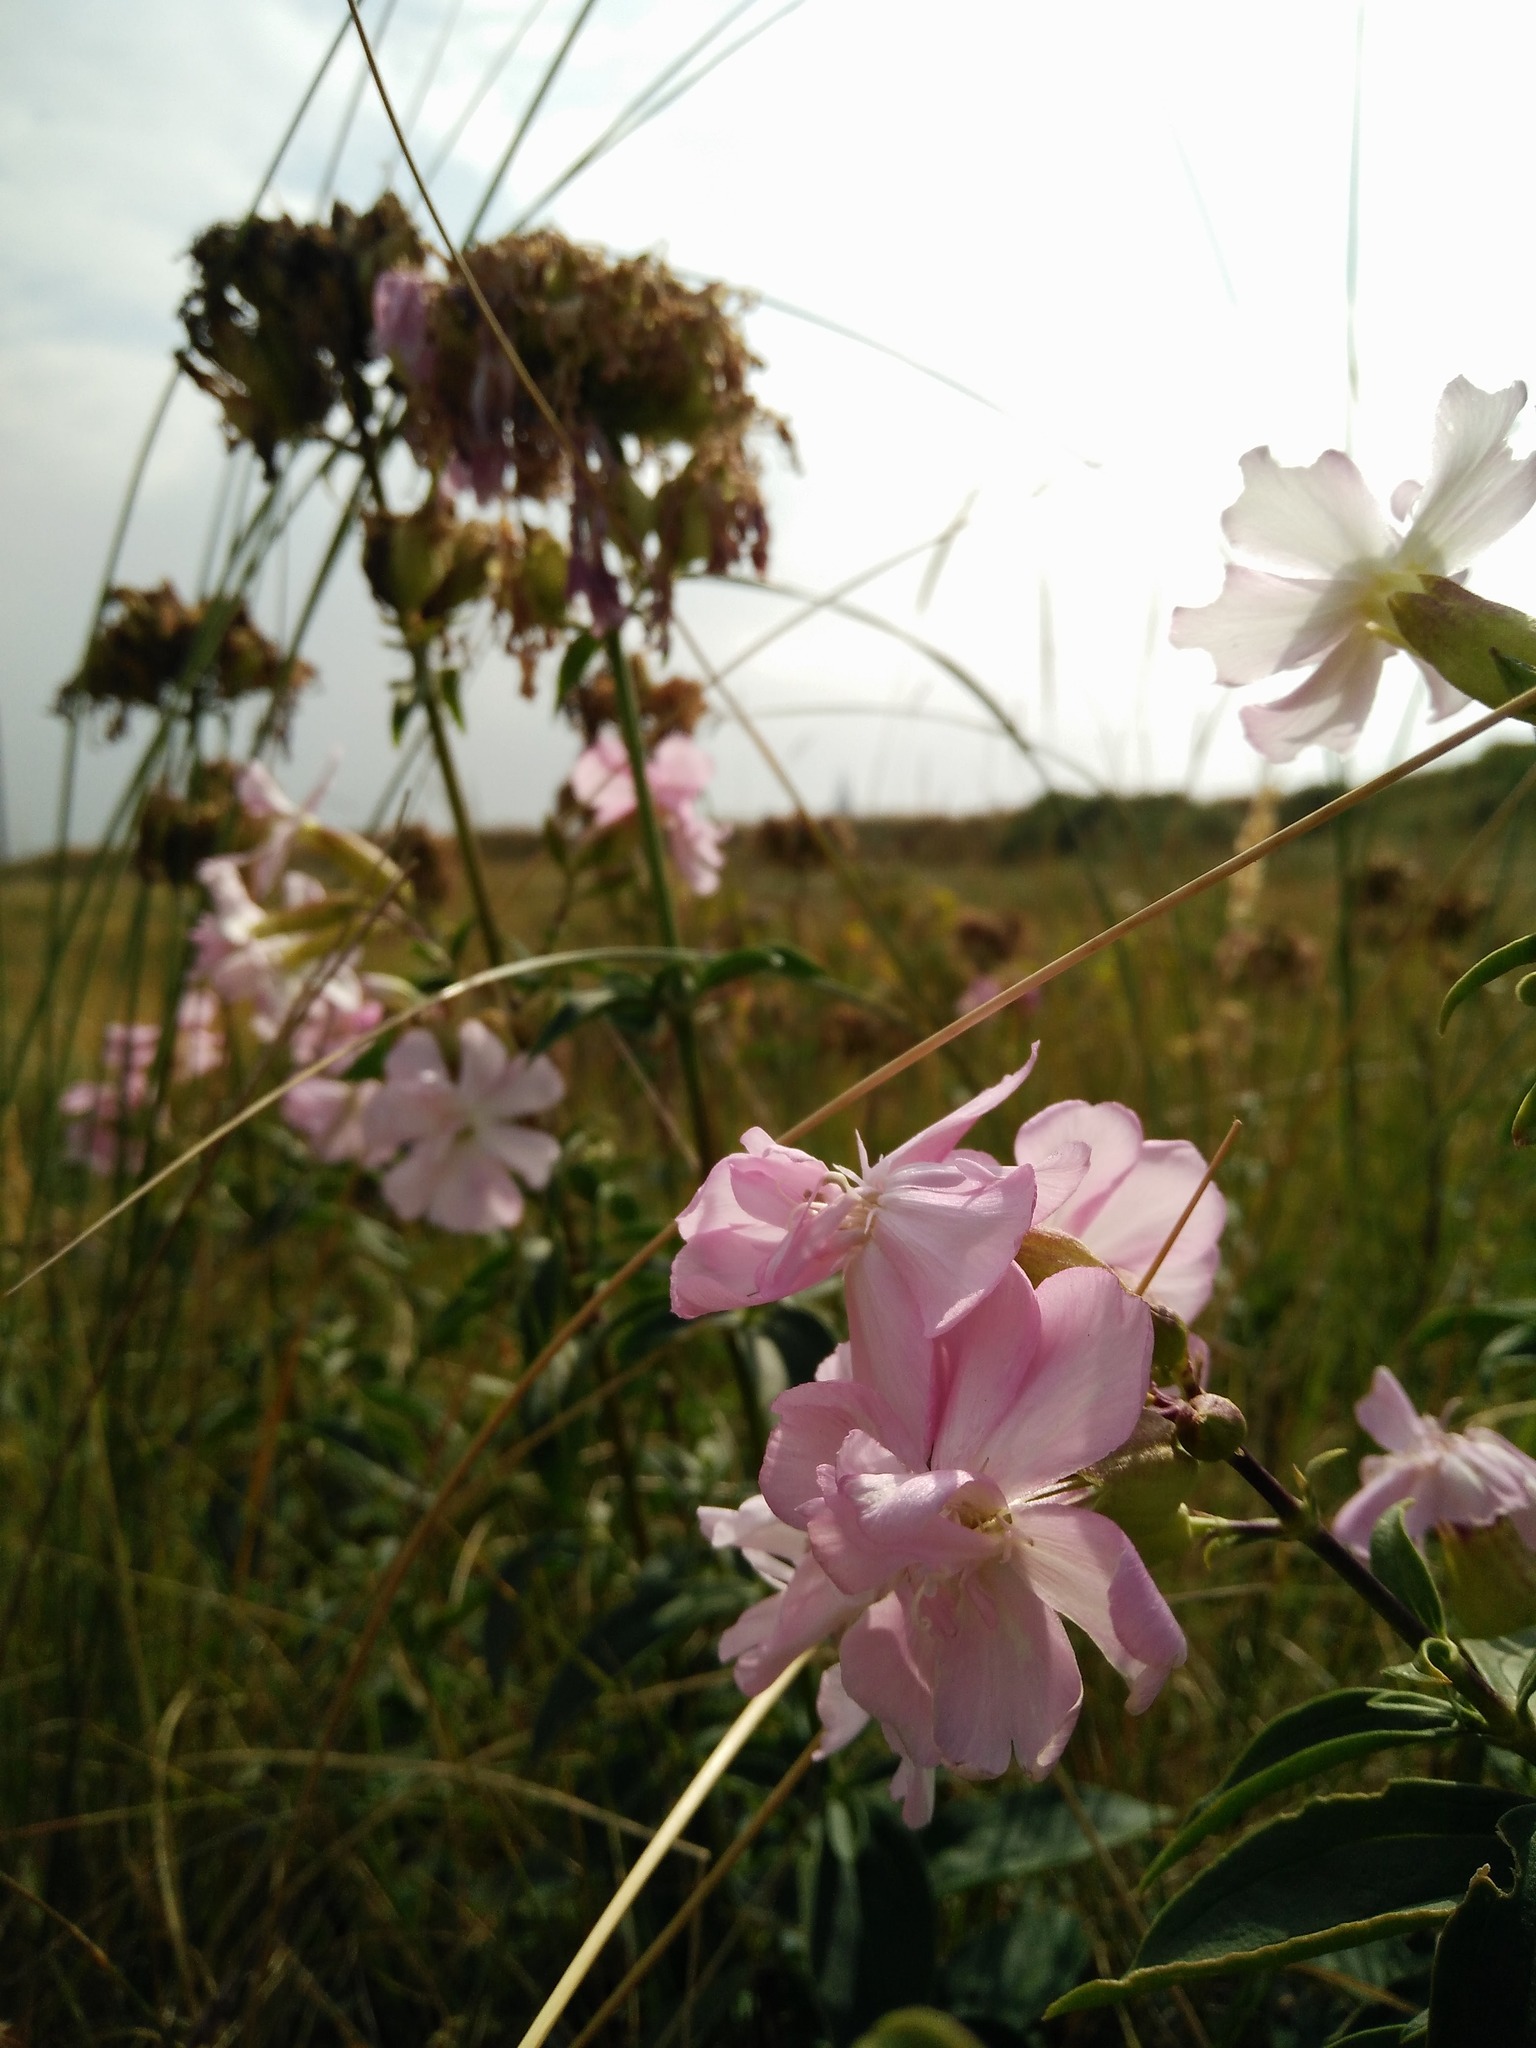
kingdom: Plantae
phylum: Tracheophyta
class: Magnoliopsida
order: Caryophyllales
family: Caryophyllaceae
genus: Saponaria
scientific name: Saponaria officinalis
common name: Soapwort
